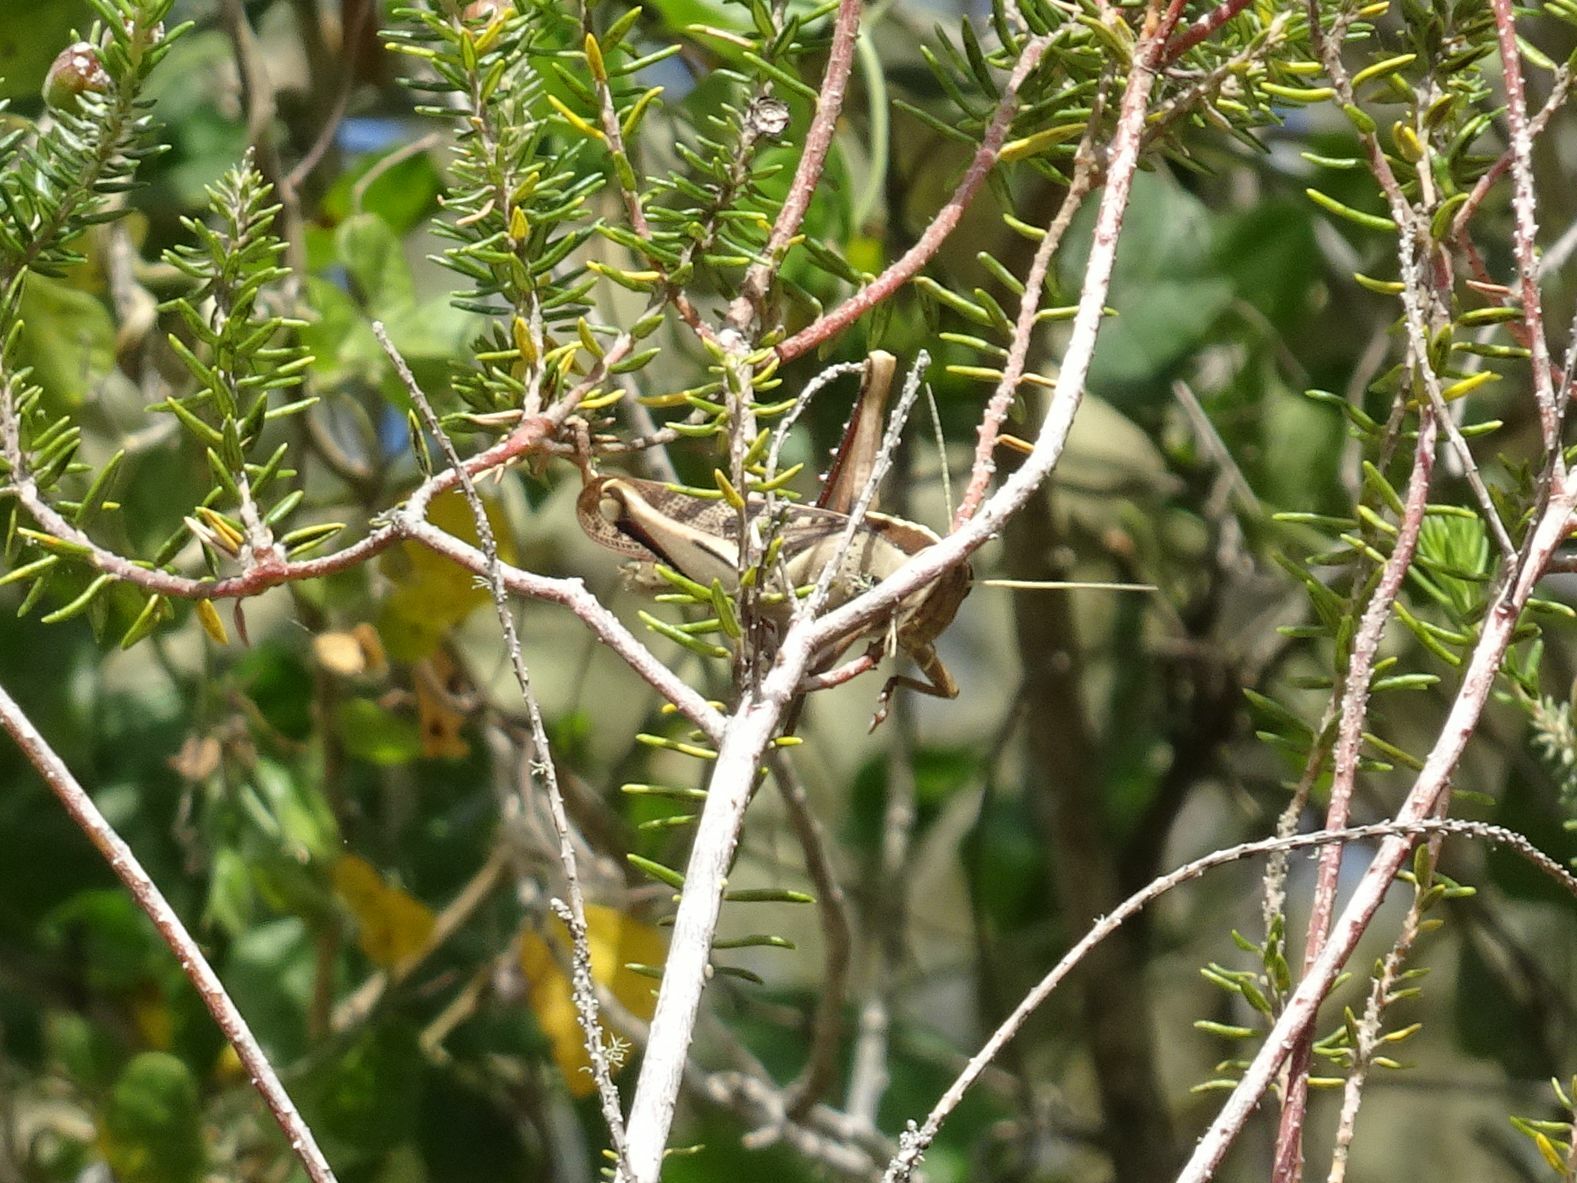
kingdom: Animalia
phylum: Arthropoda
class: Insecta
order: Orthoptera
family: Acrididae
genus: Acanthacris
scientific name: Acanthacris ruficornis
